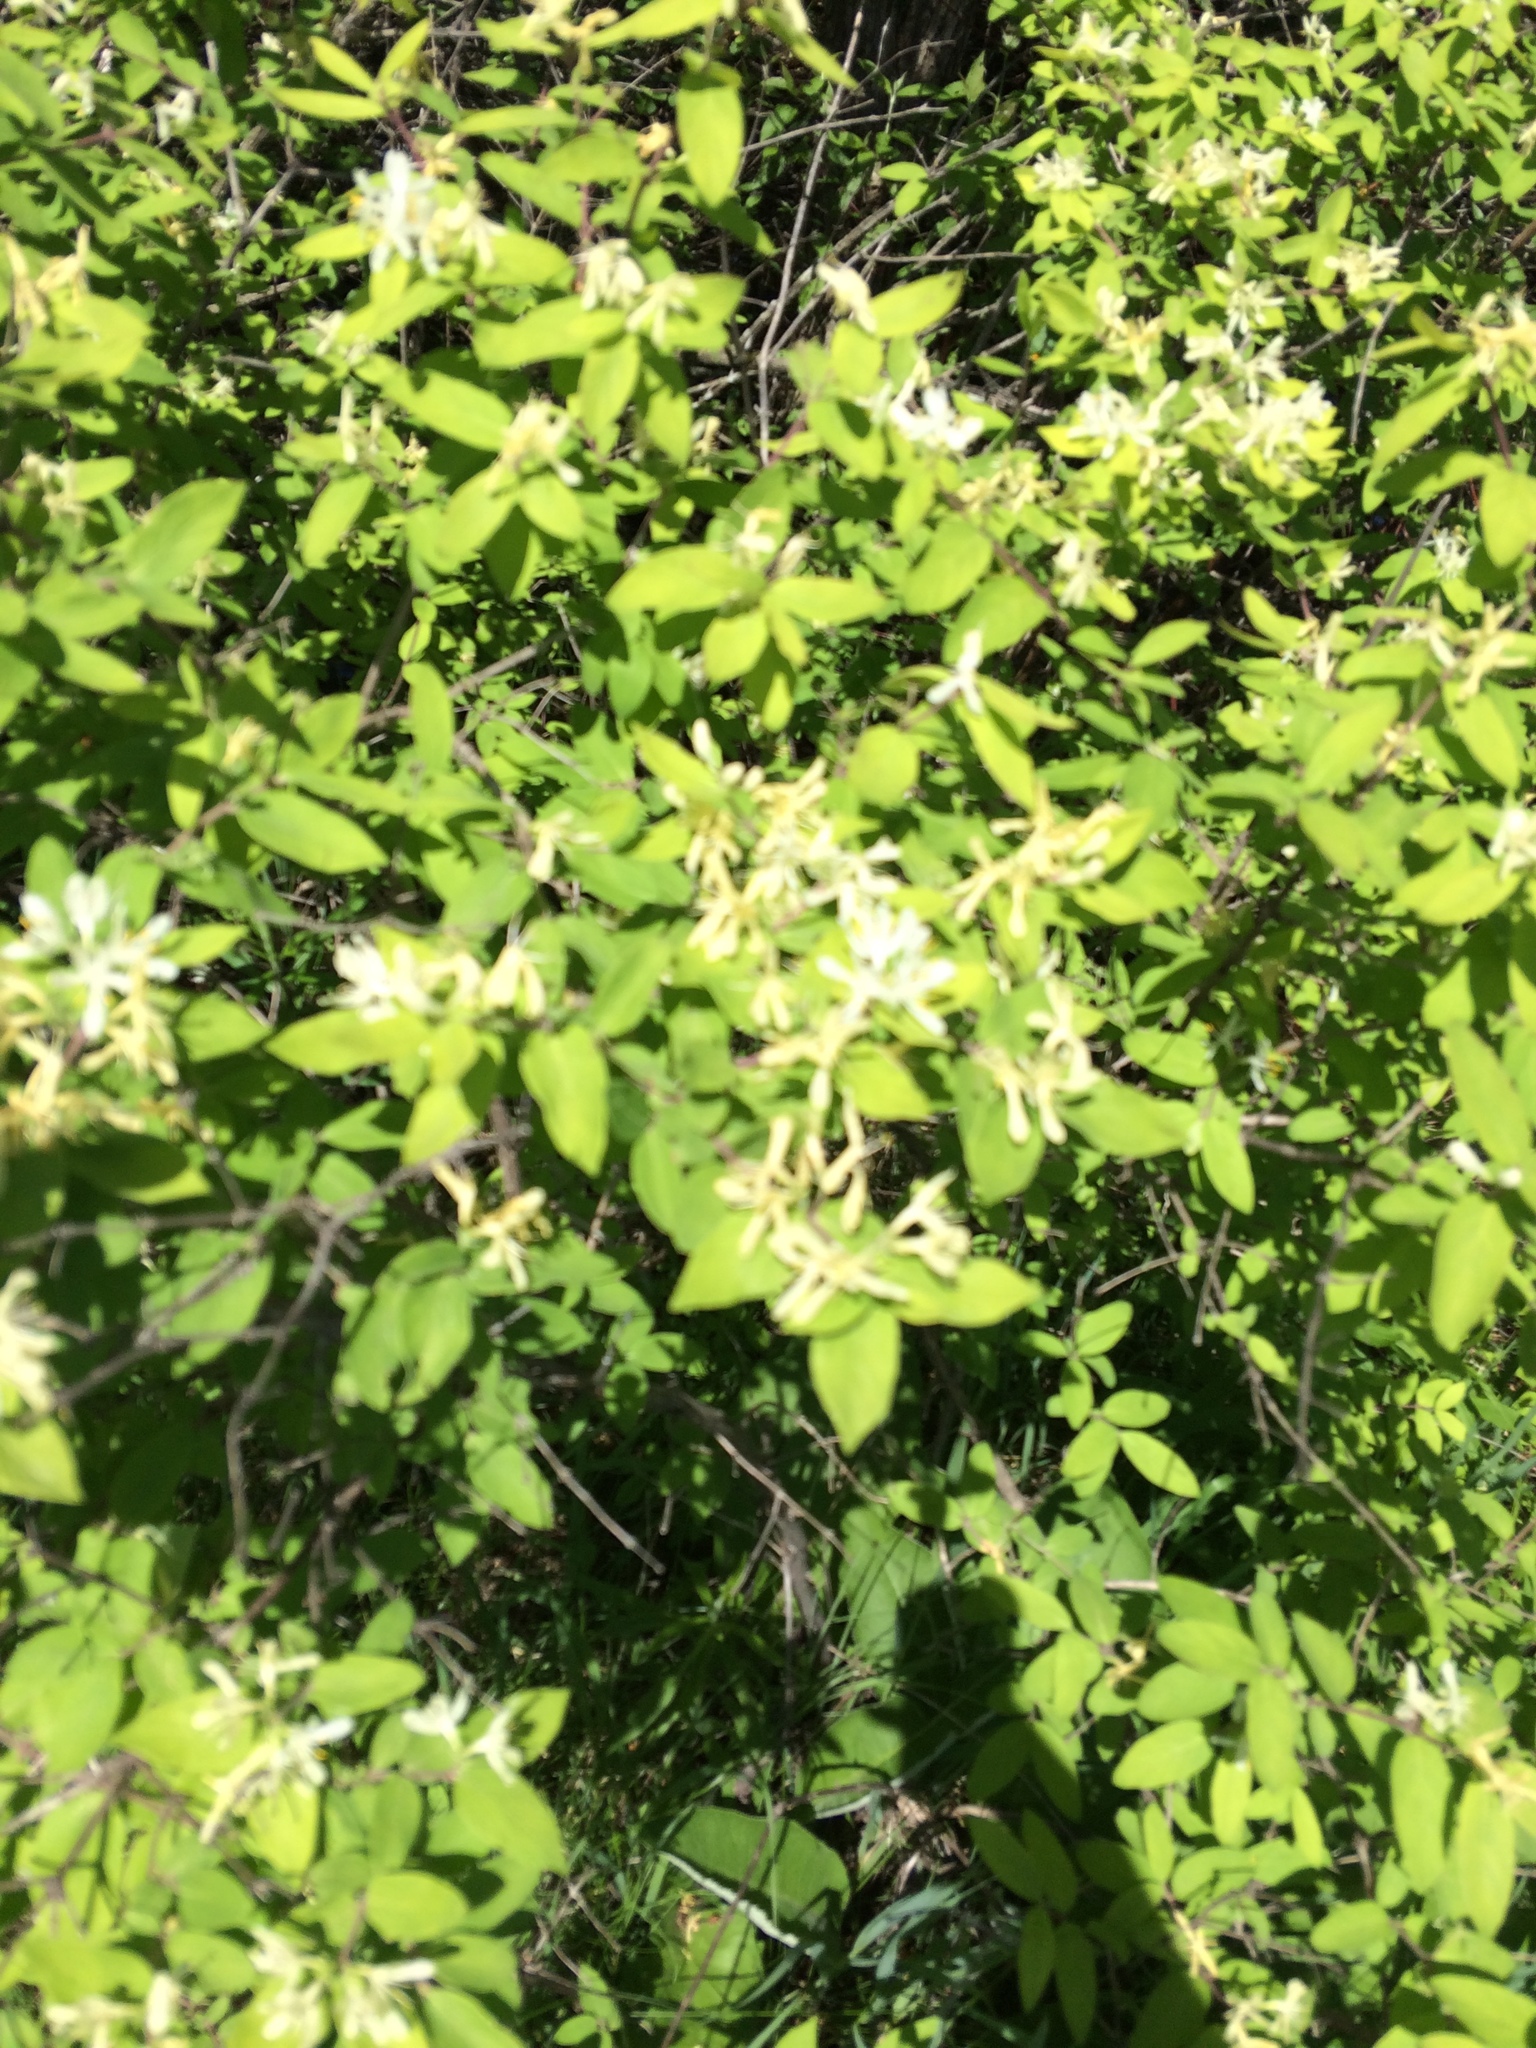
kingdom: Plantae
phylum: Tracheophyta
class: Magnoliopsida
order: Dipsacales
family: Caprifoliaceae
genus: Lonicera
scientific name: Lonicera morrowii
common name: Morrow's honeysuckle
